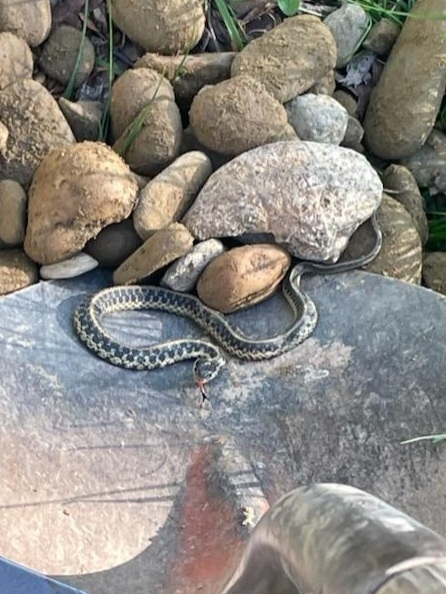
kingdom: Animalia
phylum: Chordata
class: Squamata
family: Colubridae
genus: Thamnophis
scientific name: Thamnophis sirtalis
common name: Common garter snake
